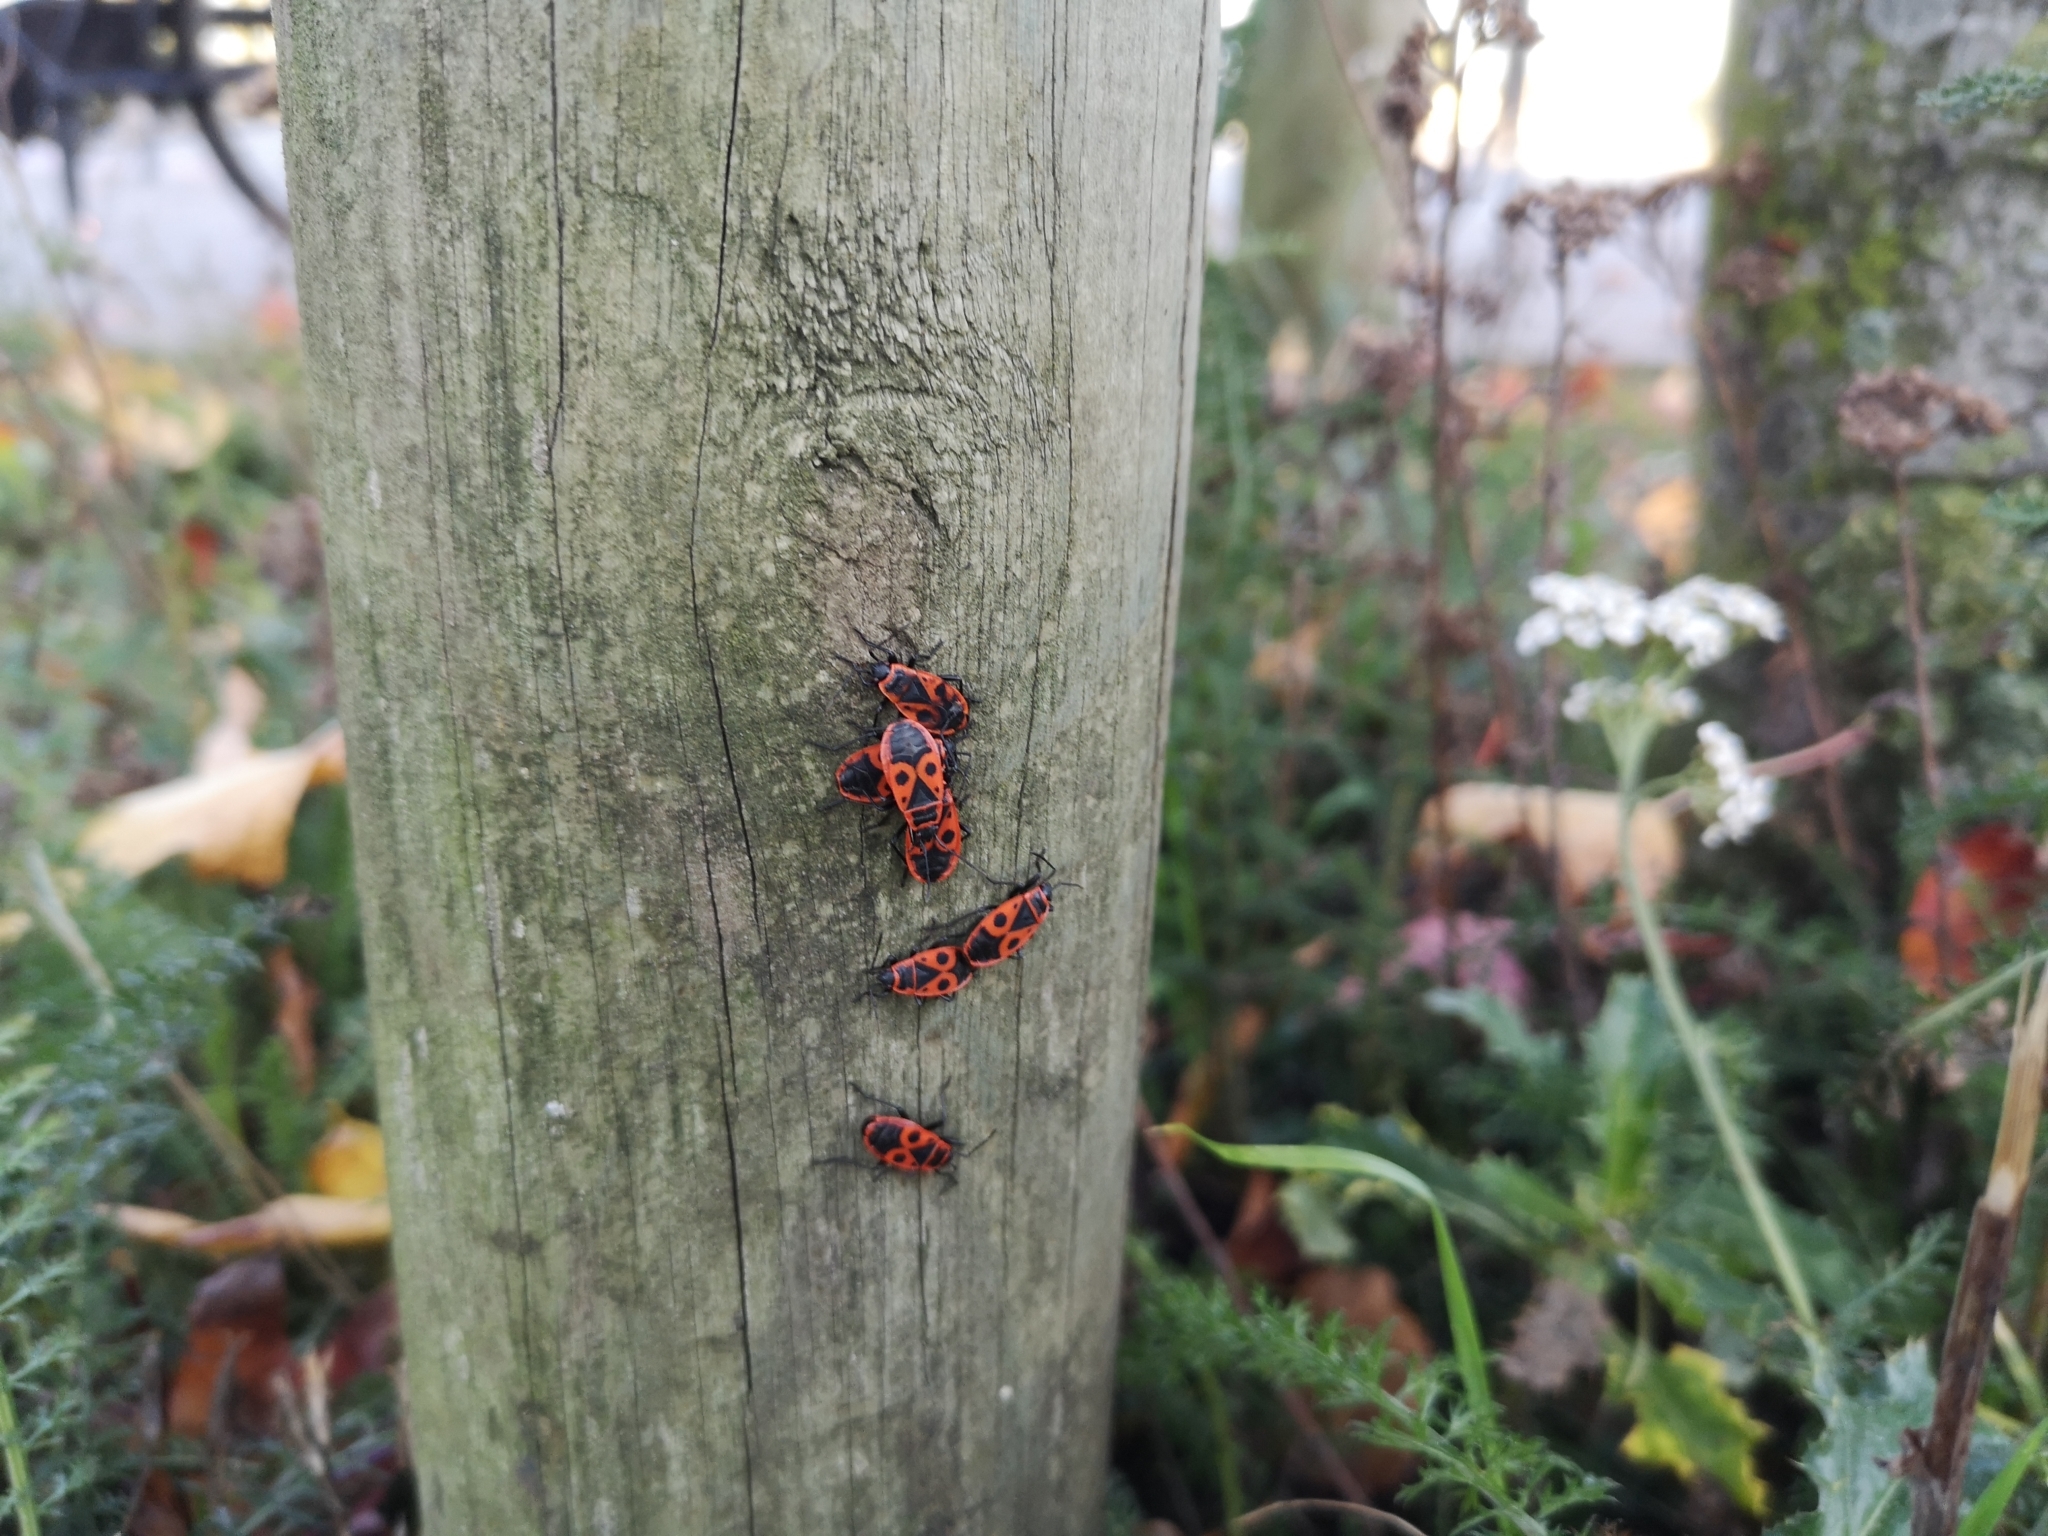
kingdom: Animalia
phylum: Arthropoda
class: Insecta
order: Hemiptera
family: Pyrrhocoridae
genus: Pyrrhocoris
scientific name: Pyrrhocoris apterus
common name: Firebug
